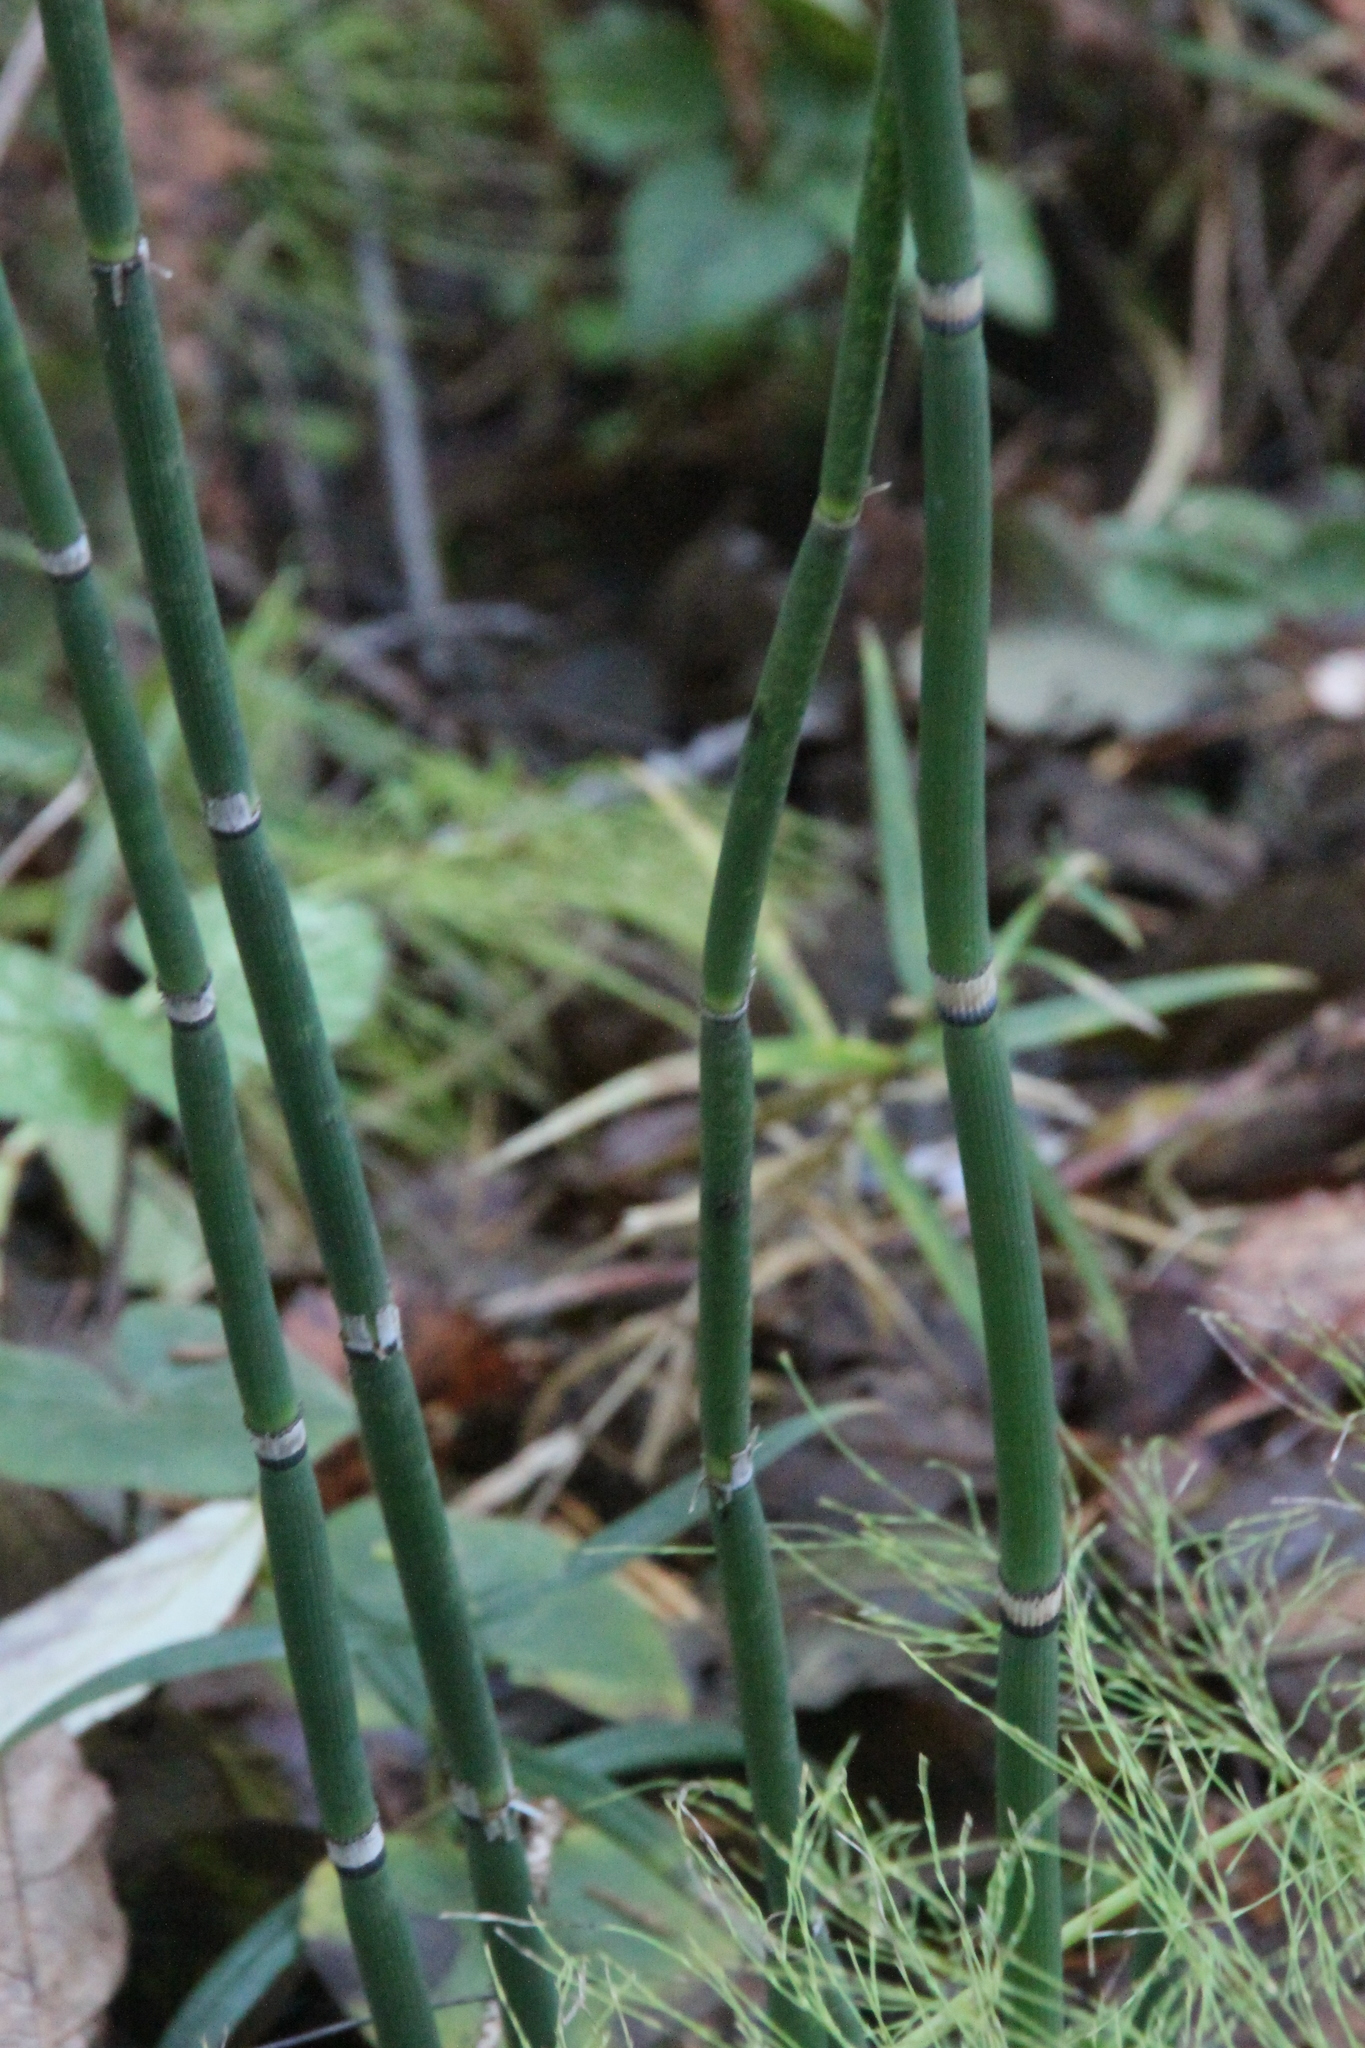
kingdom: Plantae
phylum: Tracheophyta
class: Polypodiopsida
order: Equisetales
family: Equisetaceae
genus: Equisetum
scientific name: Equisetum hyemale
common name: Rough horsetail
